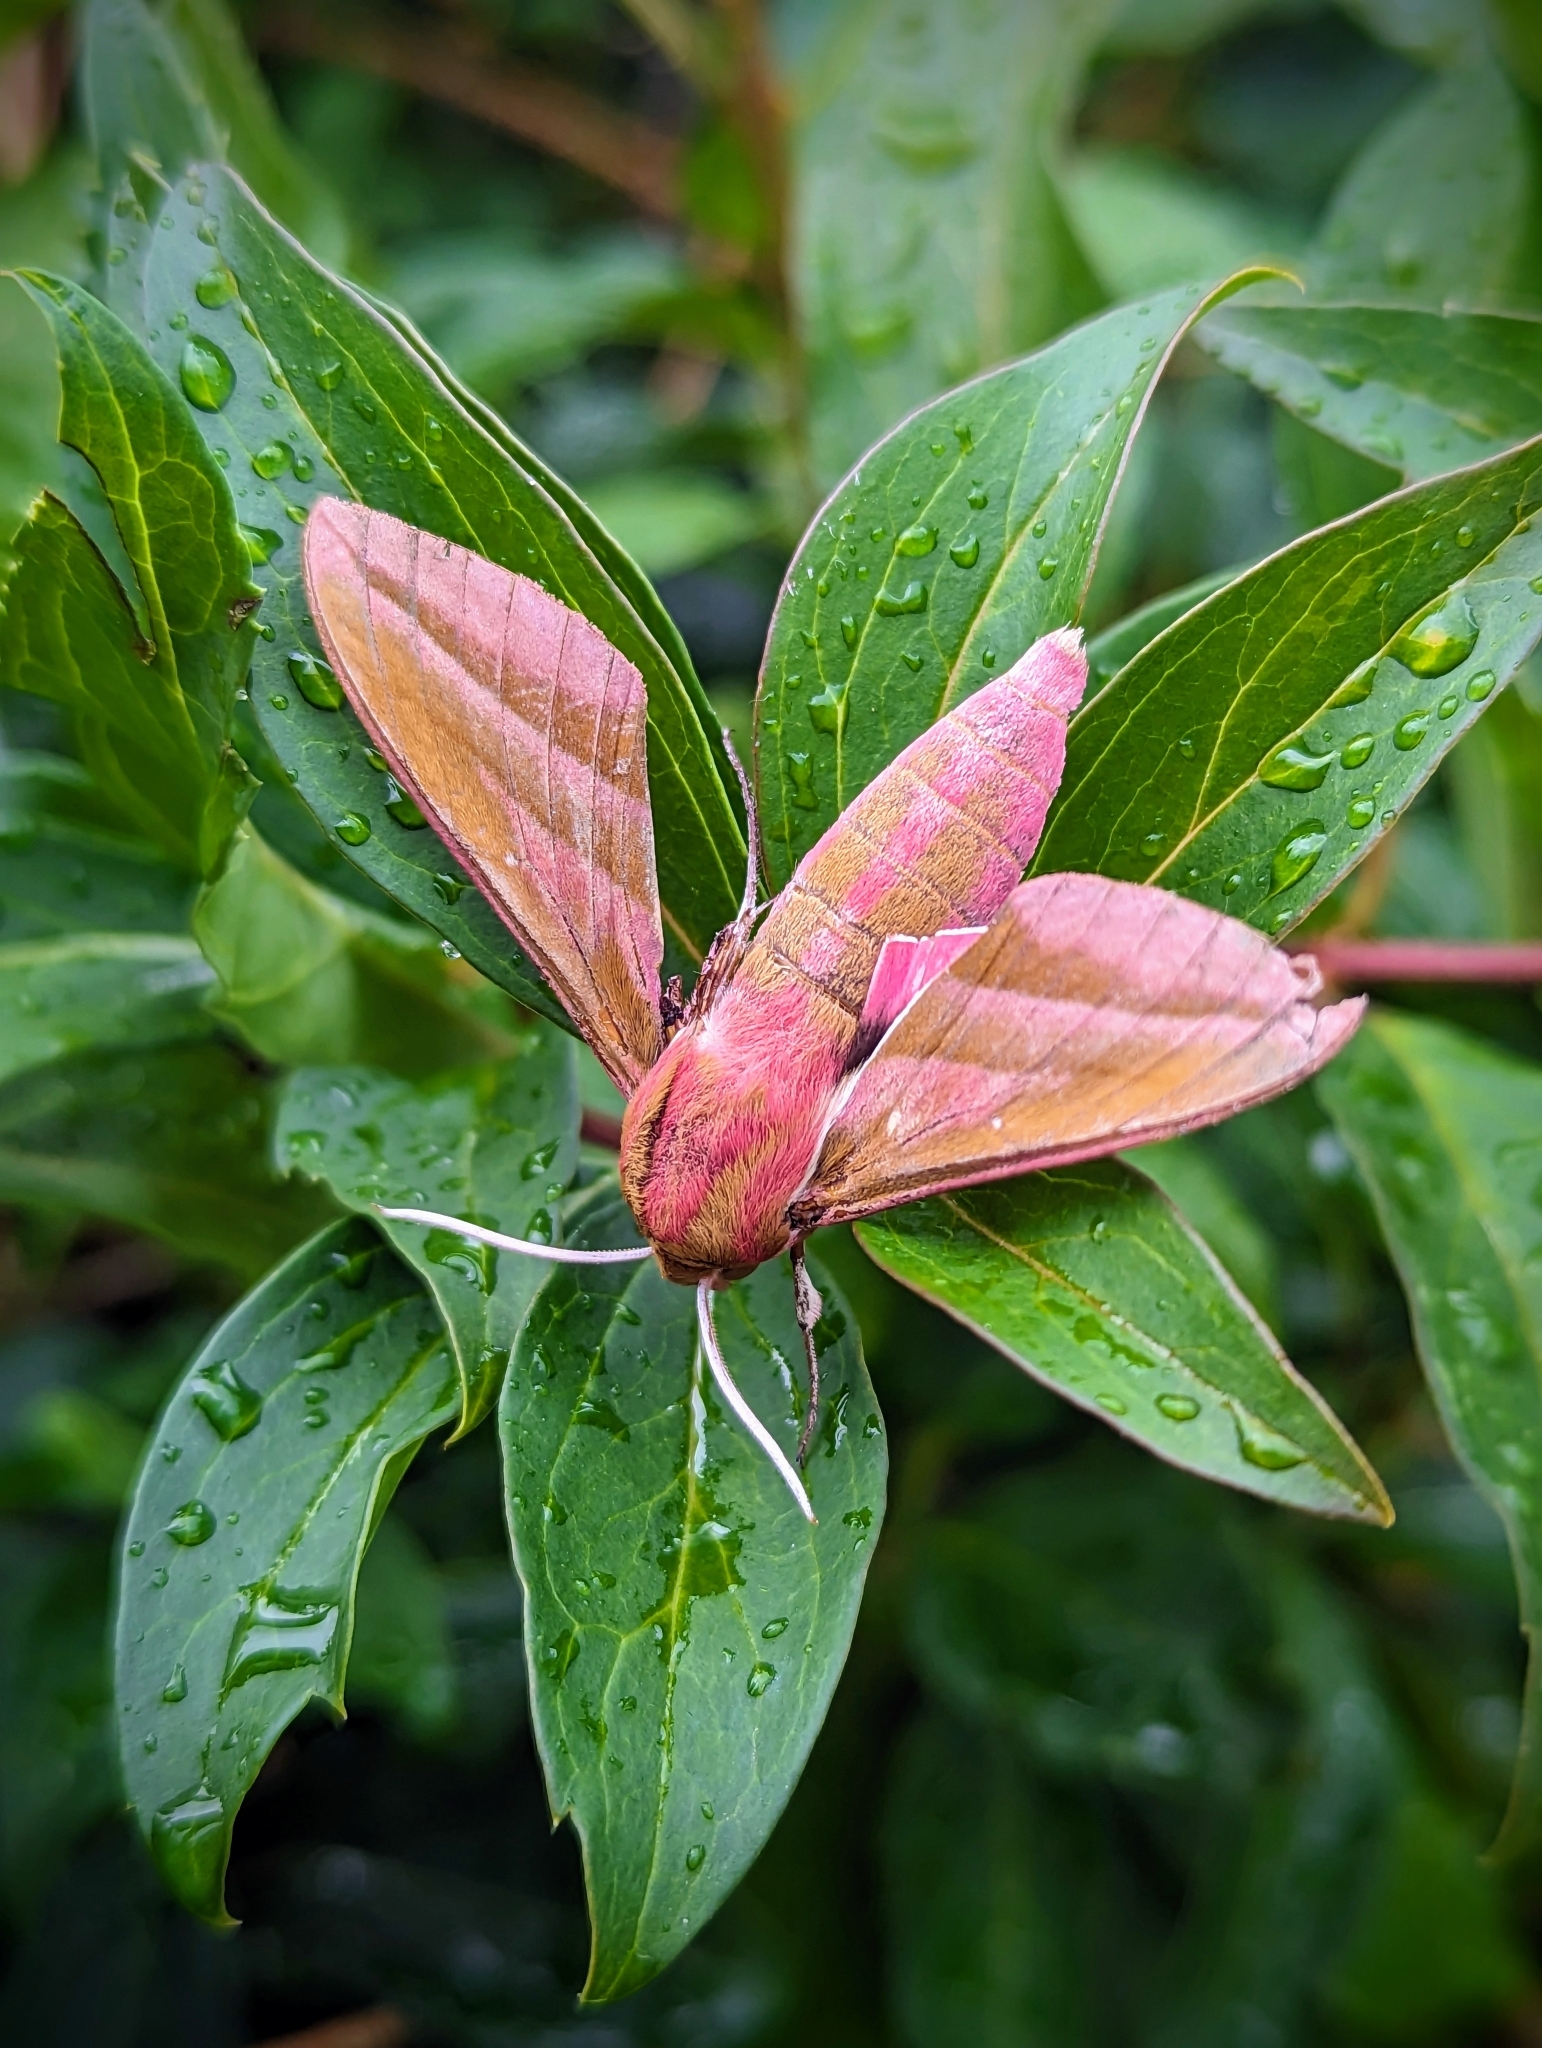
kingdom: Animalia
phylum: Arthropoda
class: Insecta
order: Lepidoptera
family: Sphingidae
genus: Deilephila
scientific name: Deilephila elpenor
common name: Elephant hawk-moth
